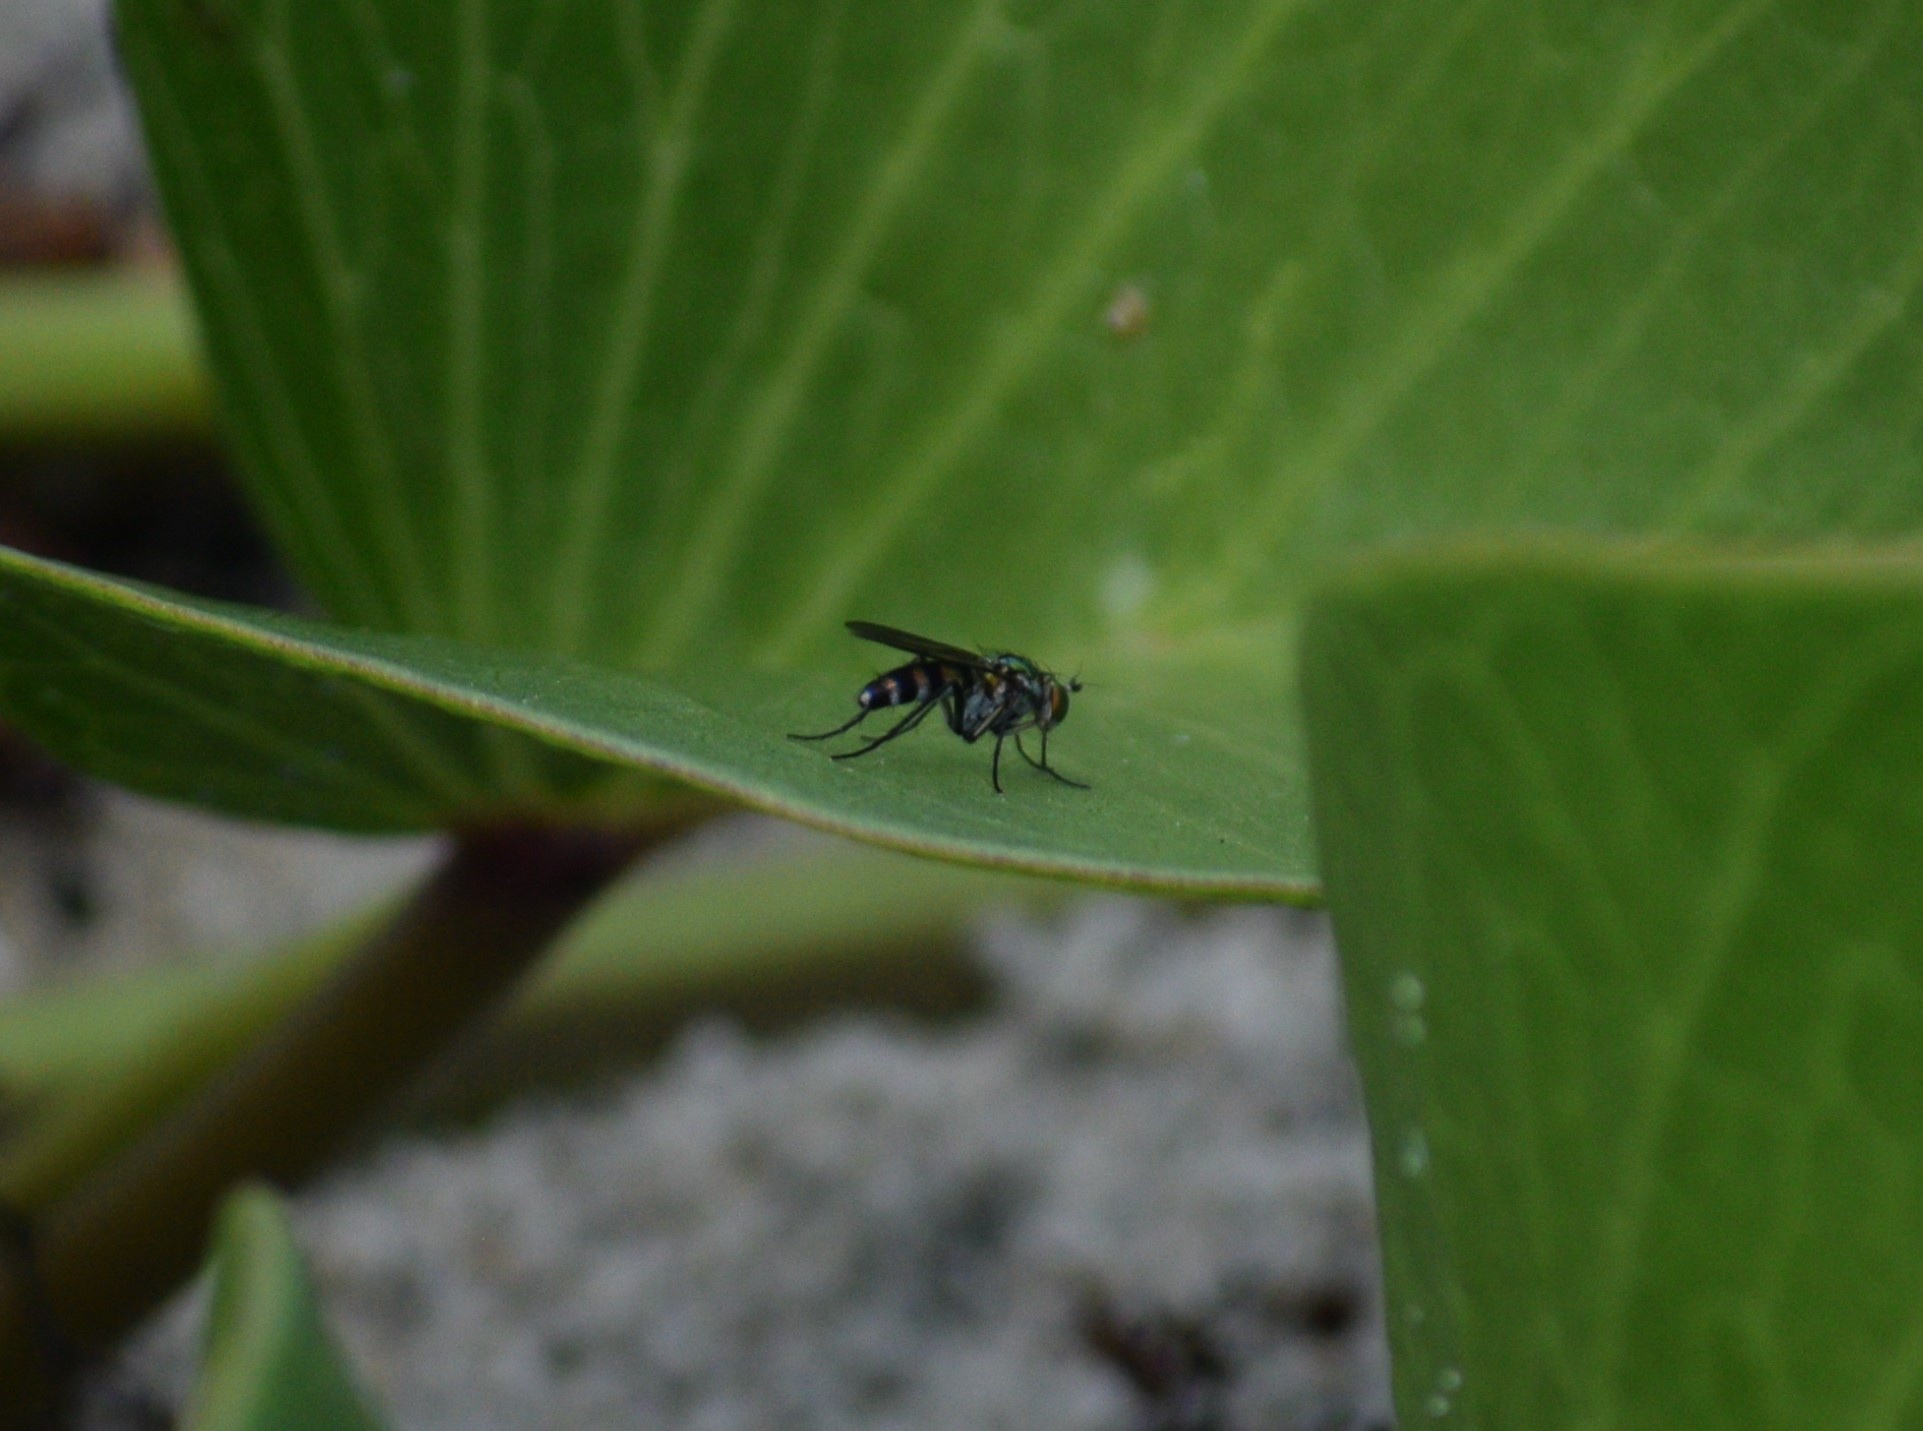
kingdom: Animalia
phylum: Arthropoda
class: Insecta
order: Diptera
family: Dolichopodidae
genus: Plagioneurus
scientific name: Plagioneurus univittatus
